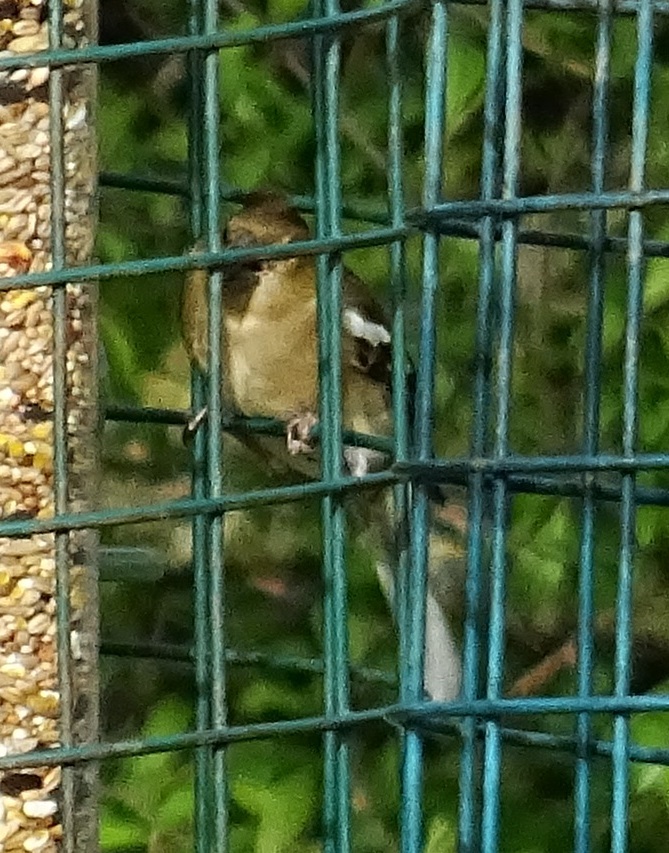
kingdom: Animalia
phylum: Chordata
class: Aves
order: Passeriformes
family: Fringillidae
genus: Fringilla
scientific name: Fringilla coelebs
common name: Common chaffinch
